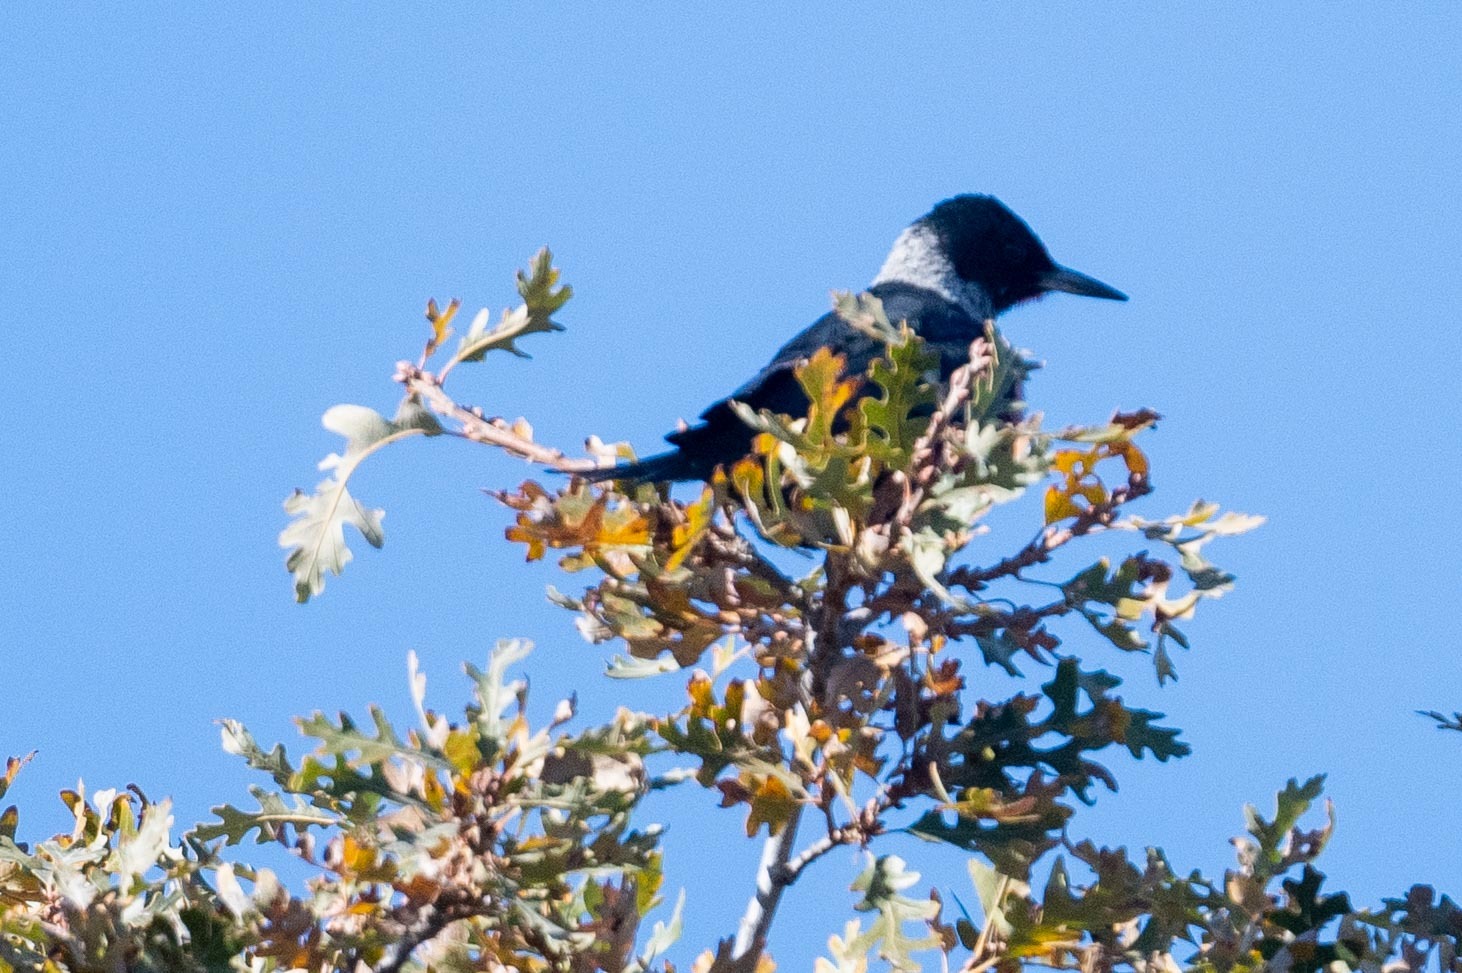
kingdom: Animalia
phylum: Chordata
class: Aves
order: Piciformes
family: Picidae
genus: Melanerpes
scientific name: Melanerpes lewis
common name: Lewis's woodpecker
